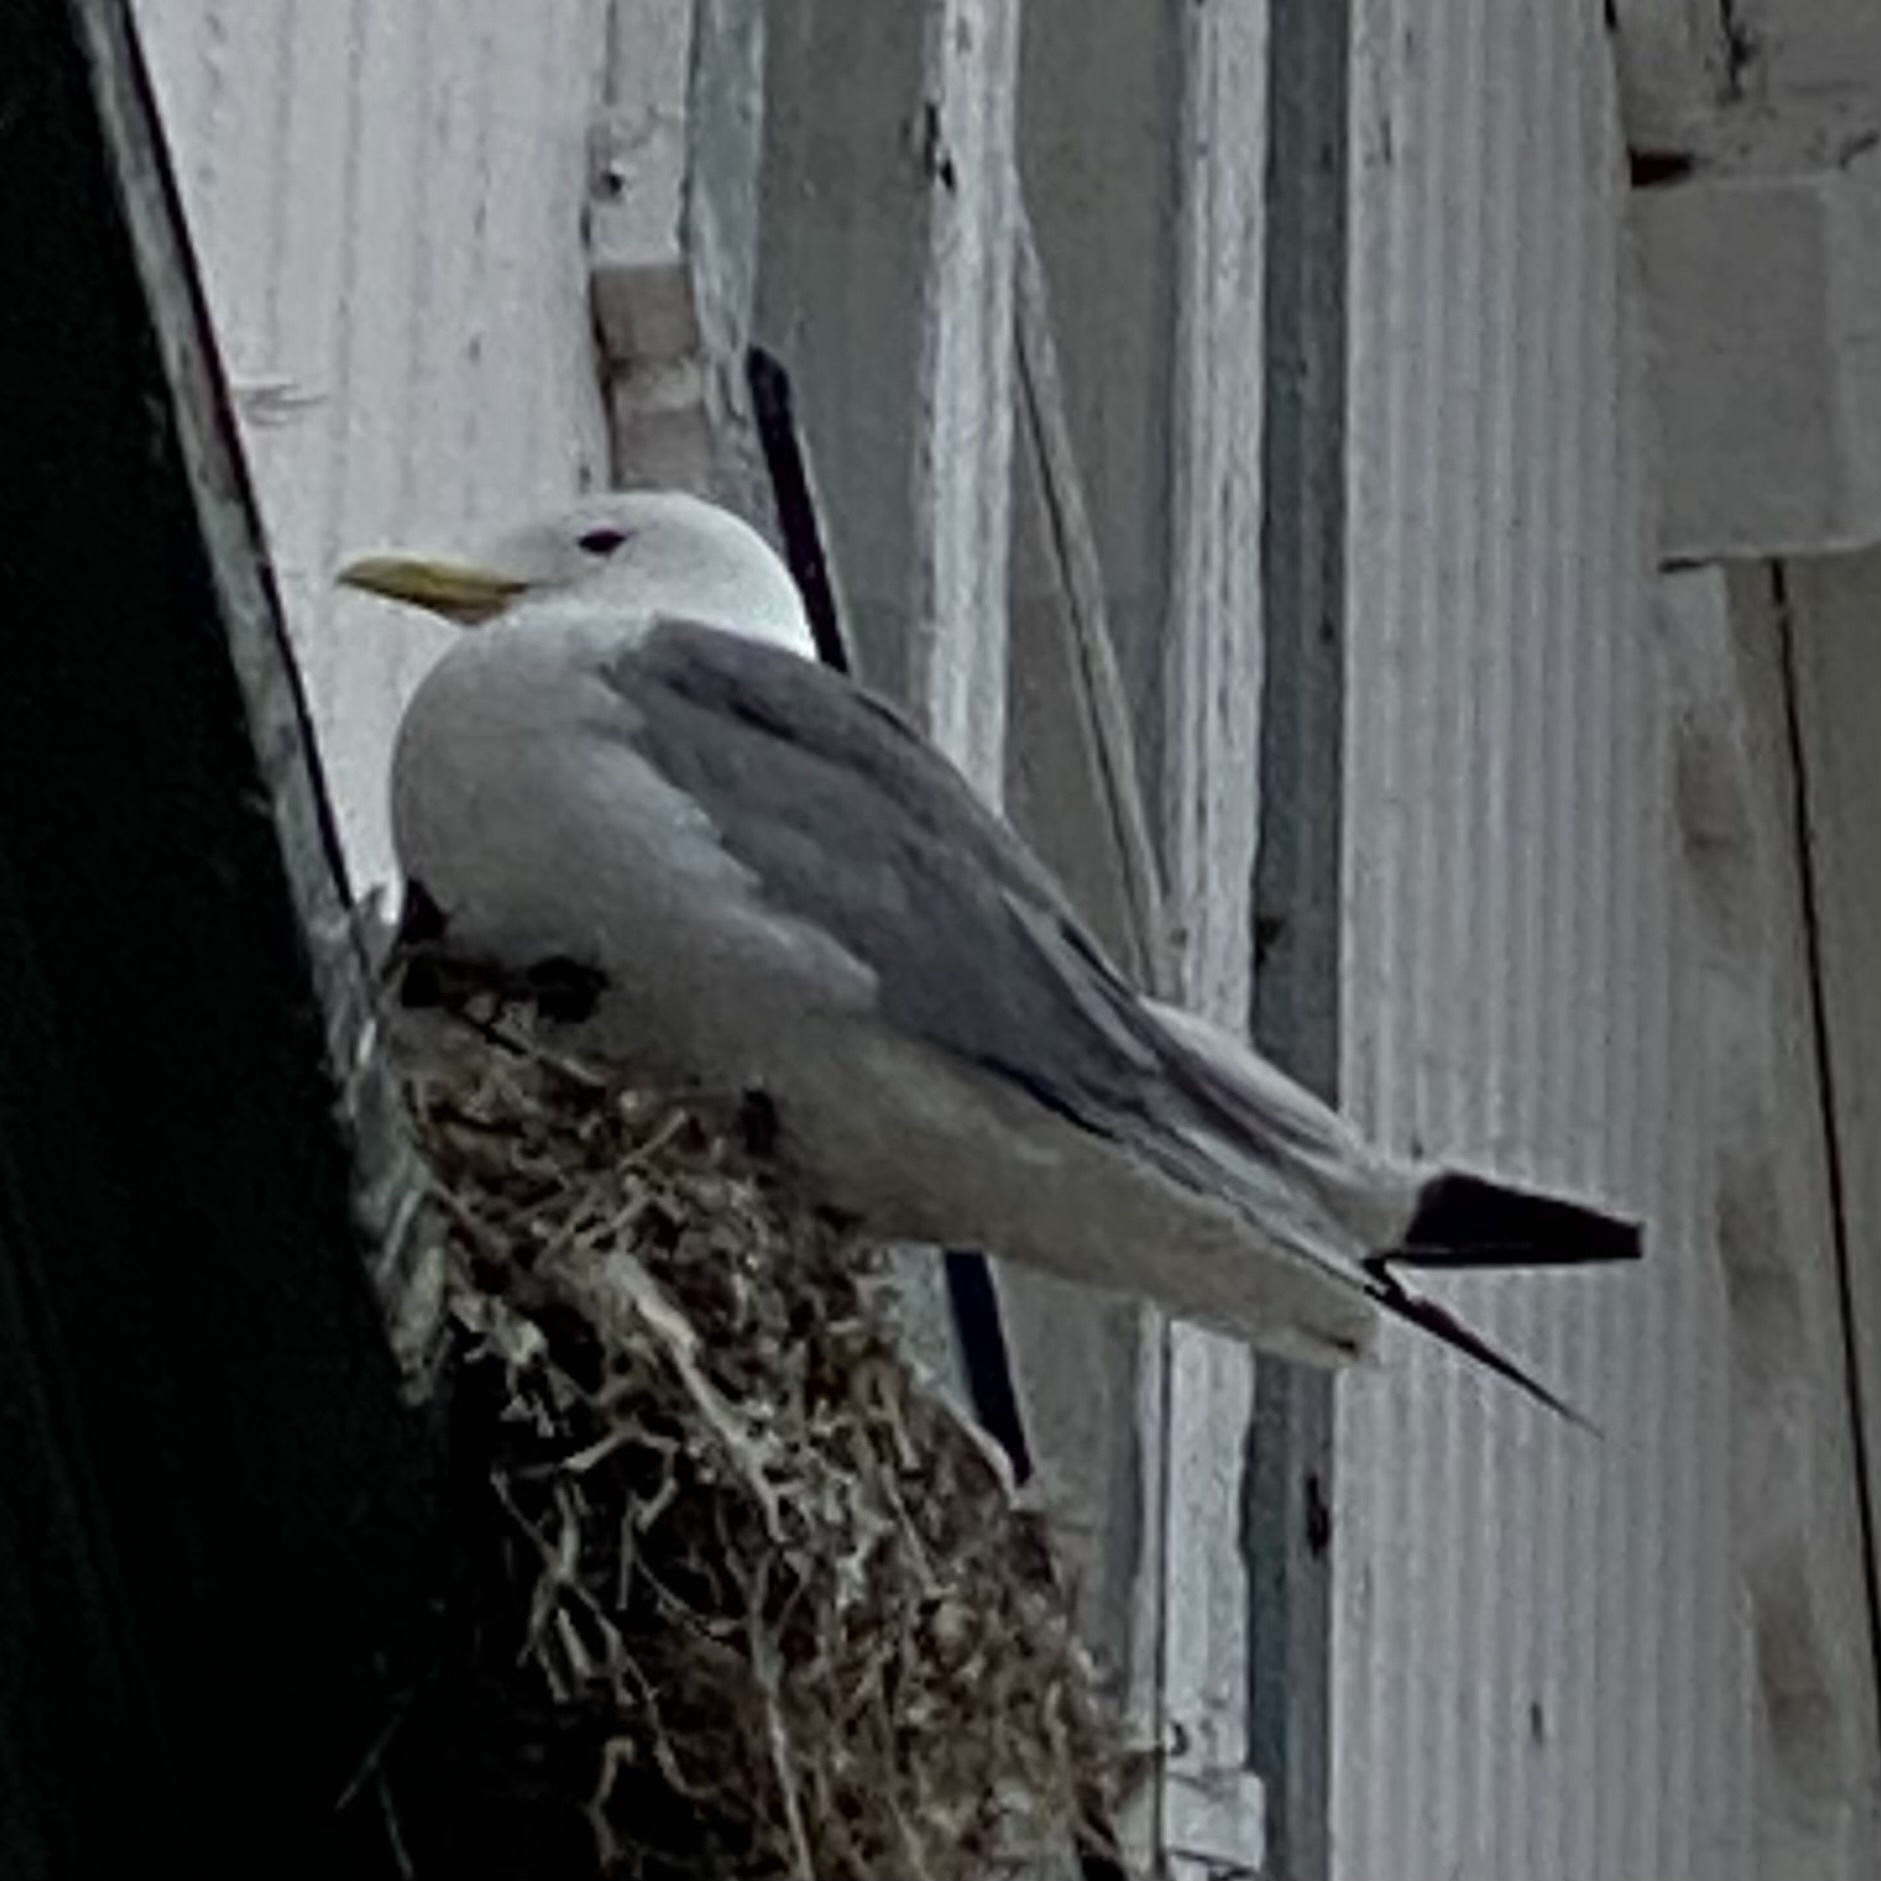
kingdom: Animalia
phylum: Chordata
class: Aves
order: Charadriiformes
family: Laridae
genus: Rissa
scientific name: Rissa tridactyla
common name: Black-legged kittiwake
